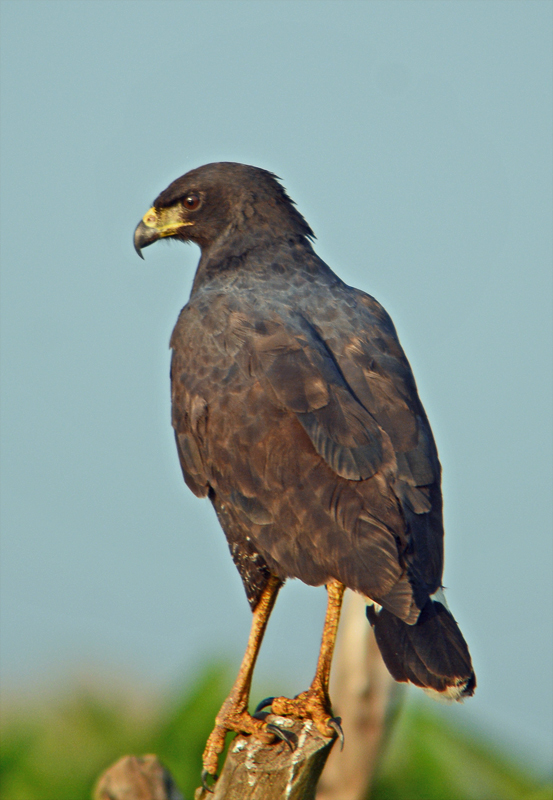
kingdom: Animalia
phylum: Chordata
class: Aves
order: Accipitriformes
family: Accipitridae
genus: Buteogallus
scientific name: Buteogallus anthracinus
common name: Common black hawk
